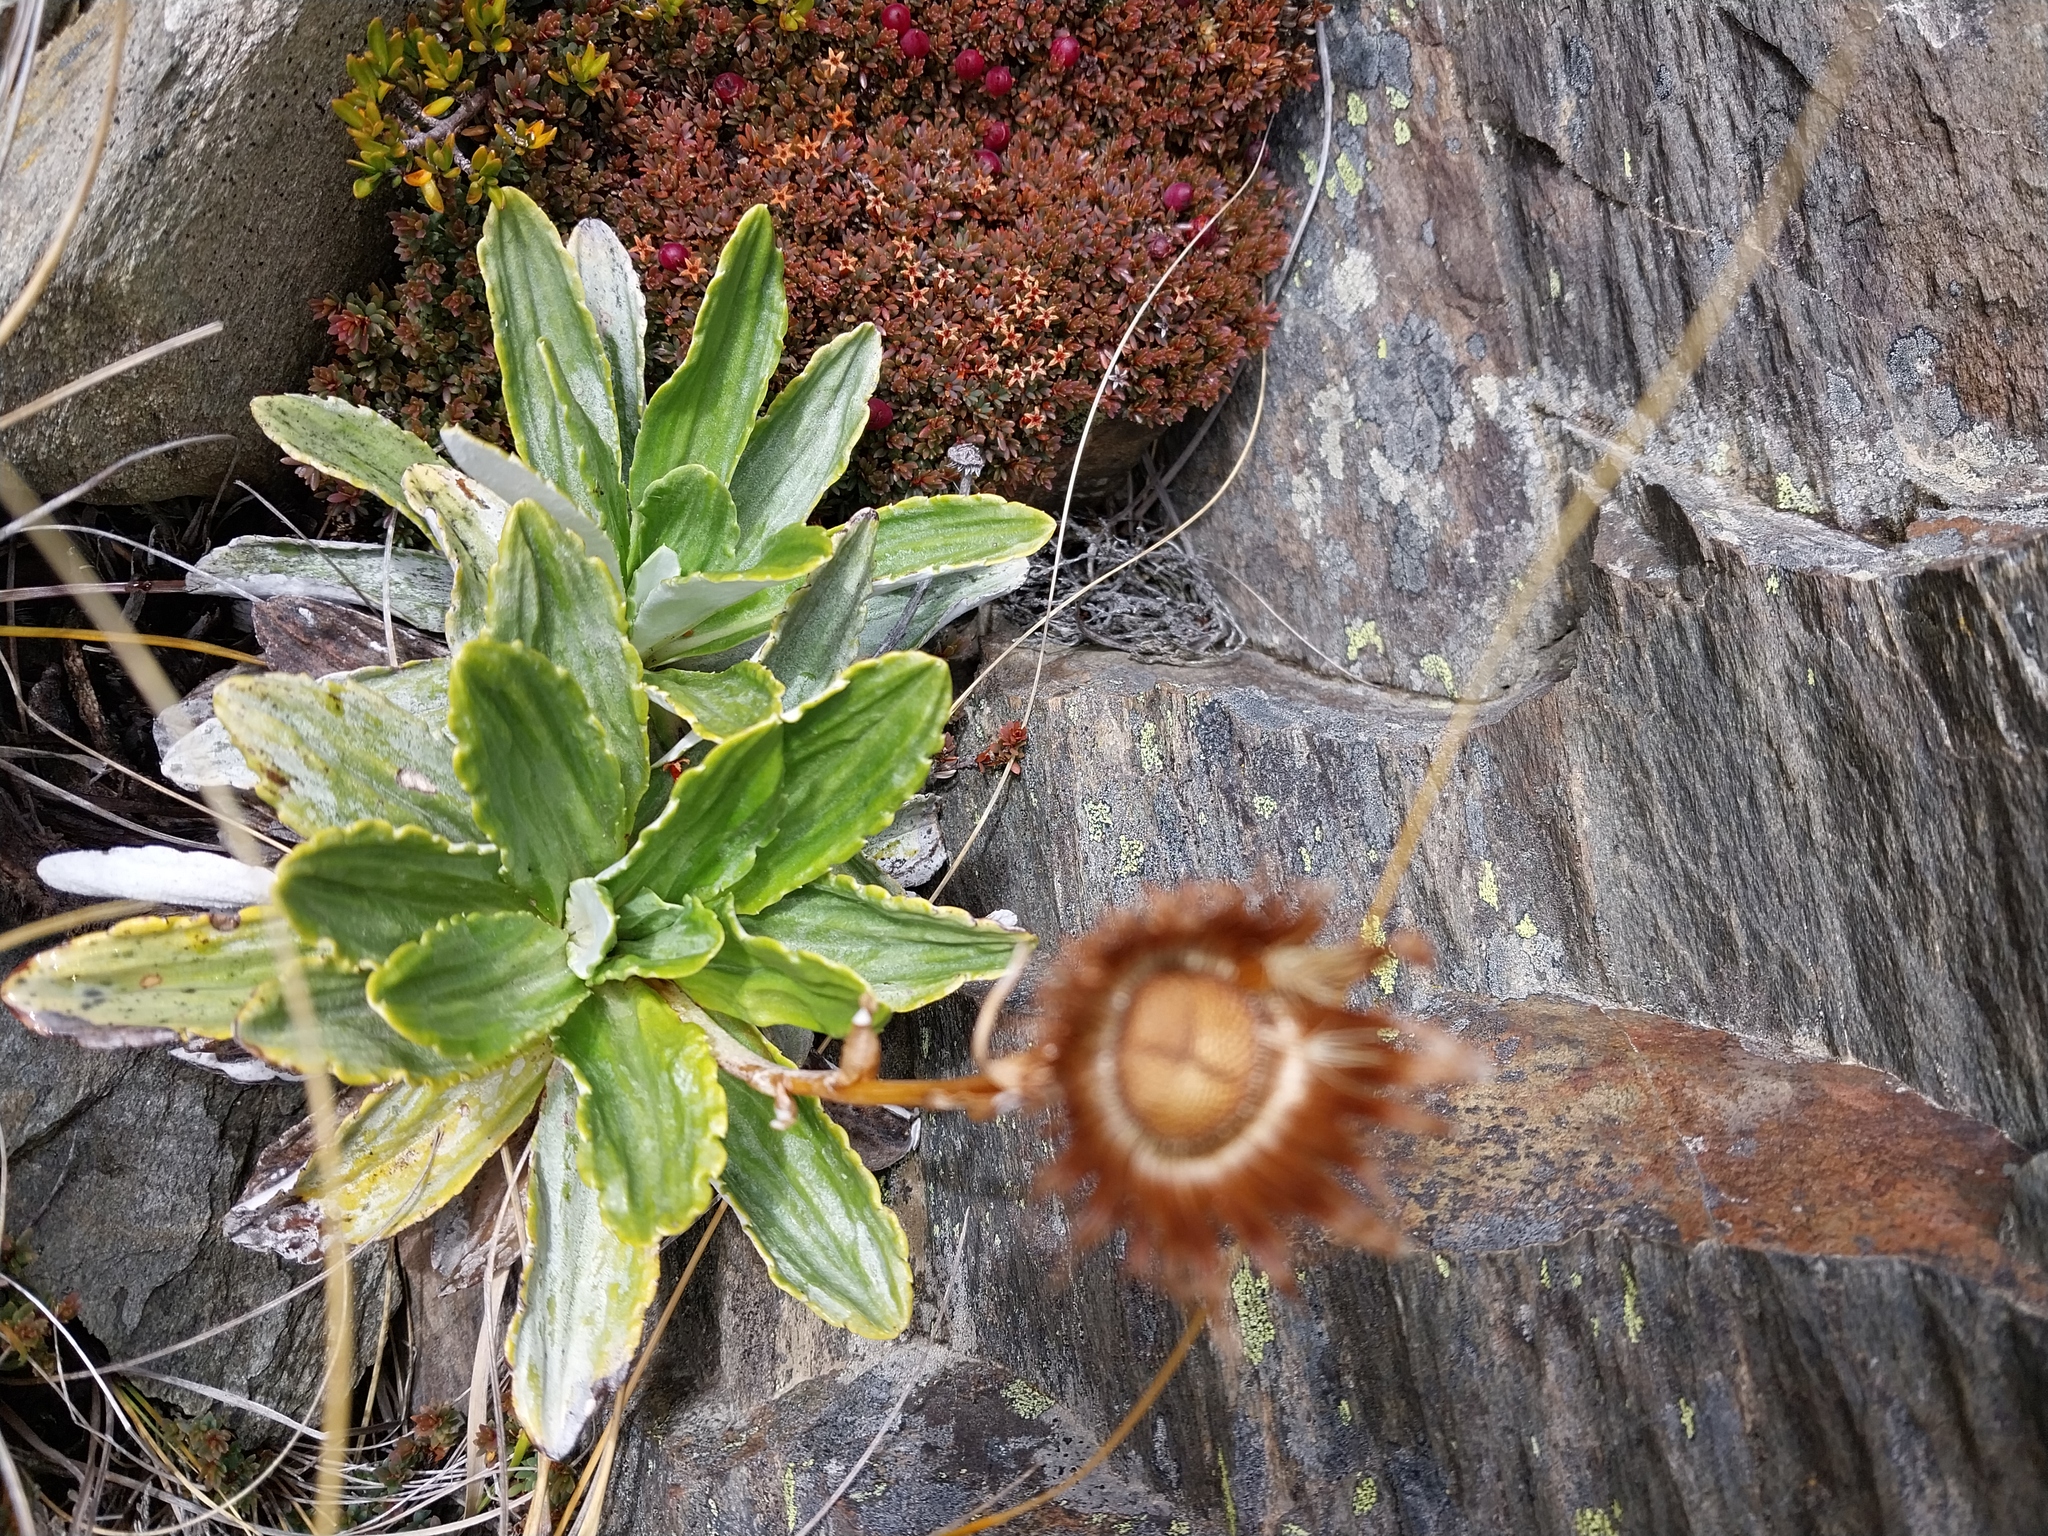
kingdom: Plantae
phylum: Tracheophyta
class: Magnoliopsida
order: Asterales
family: Asteraceae
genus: Celmisia
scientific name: Celmisia densiflora
